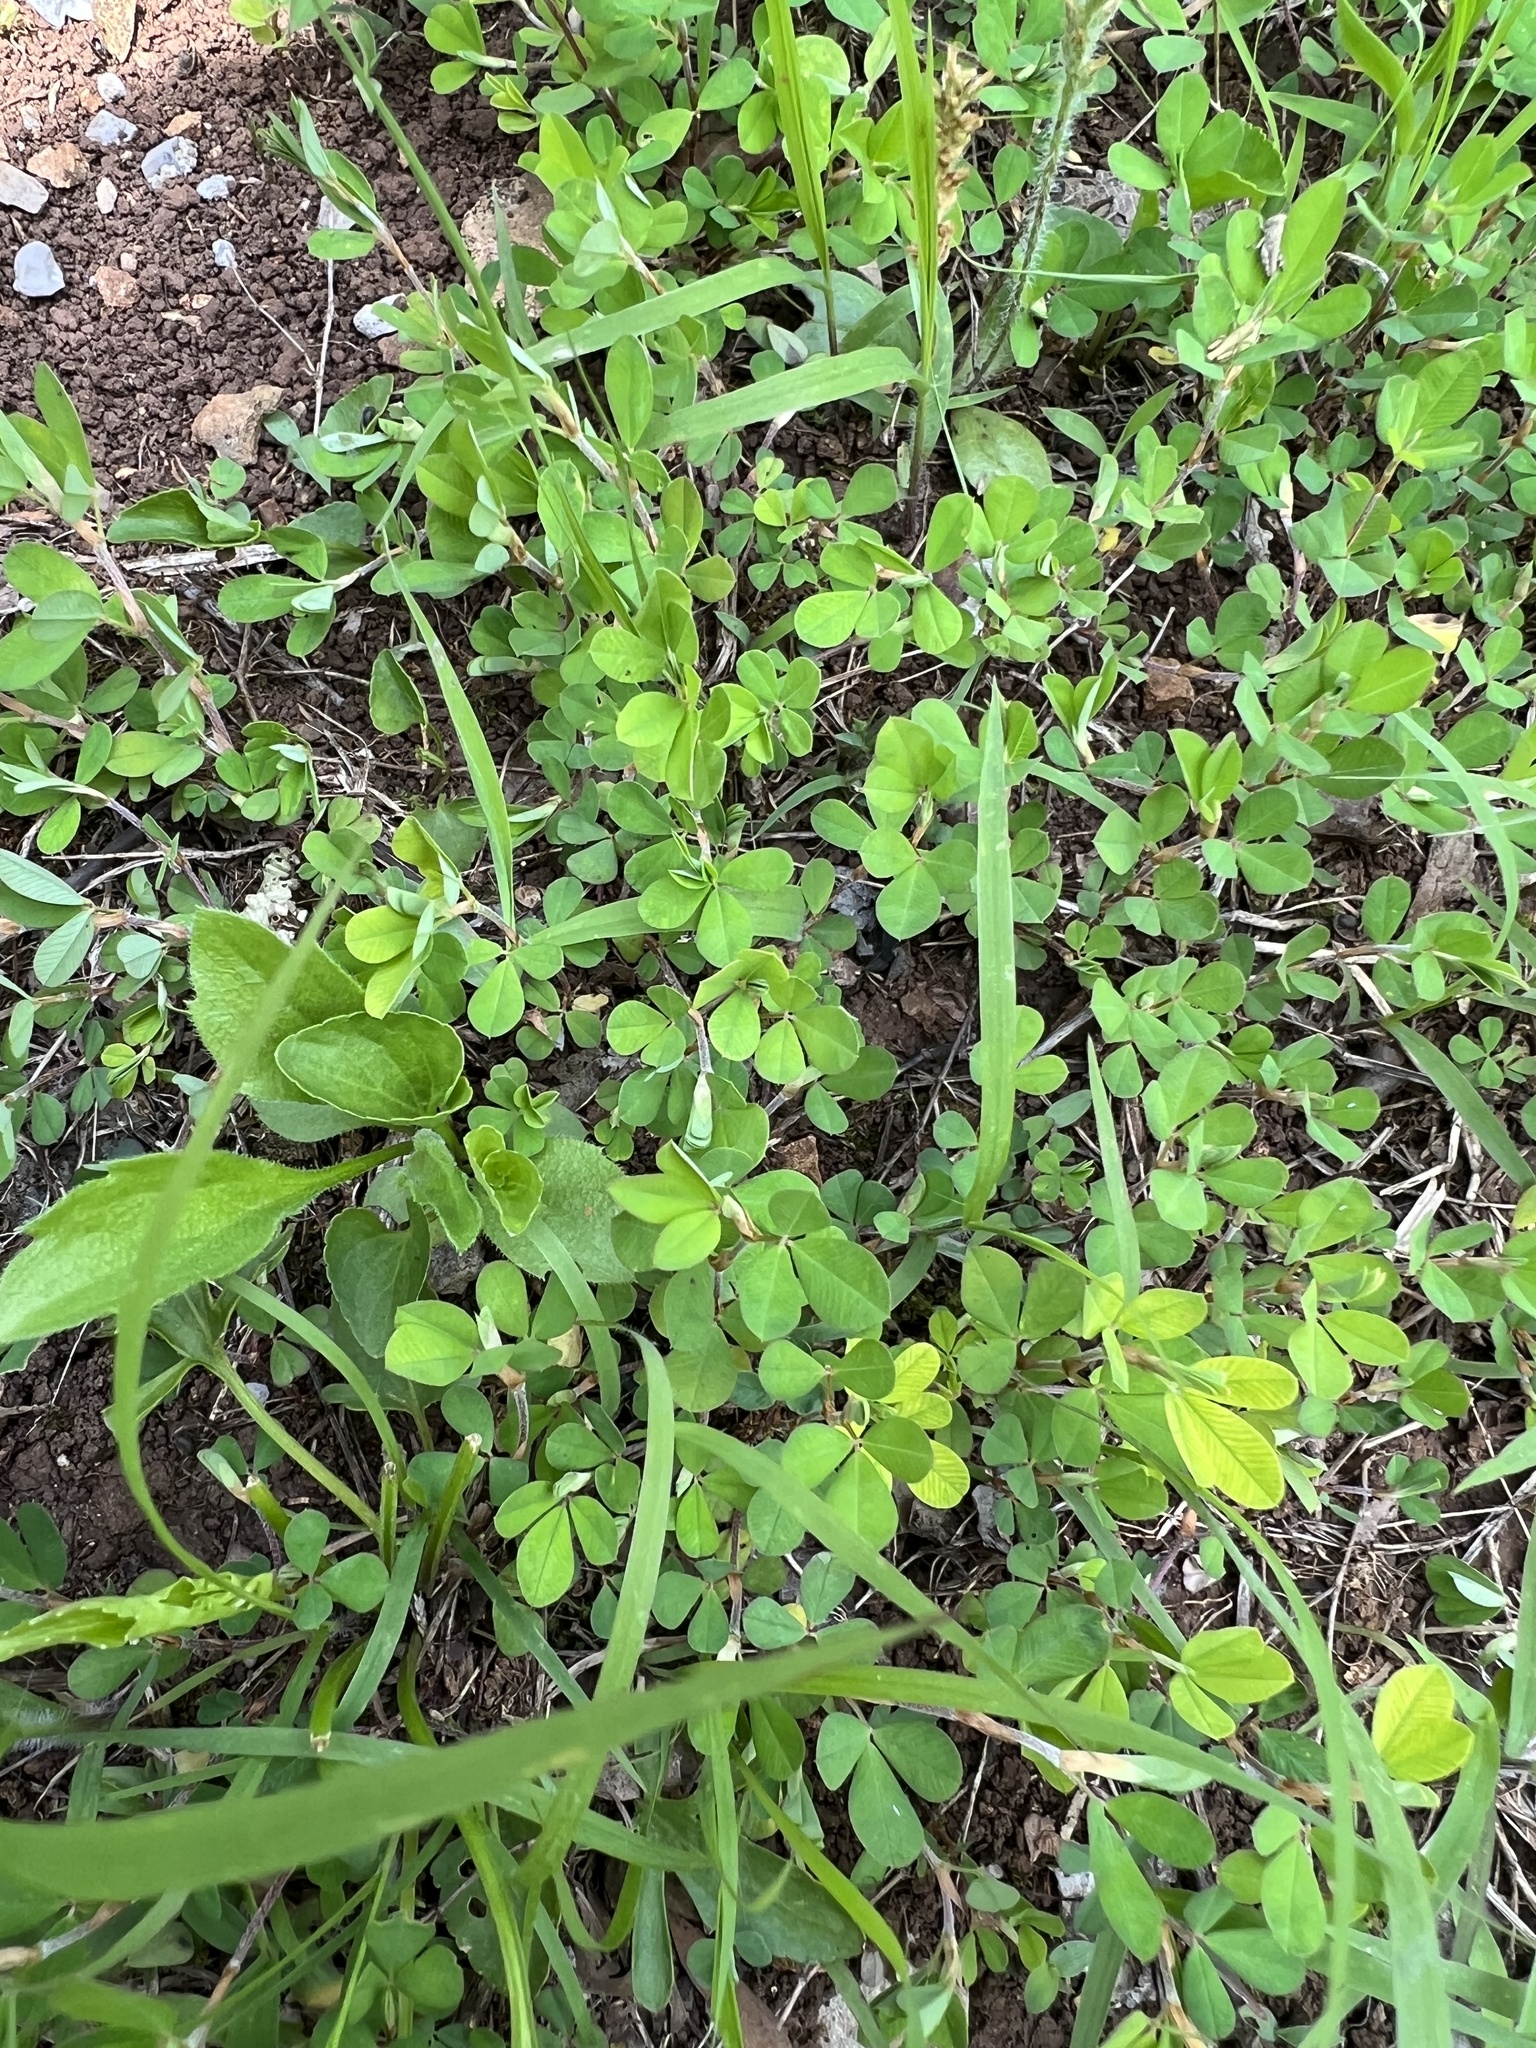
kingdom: Plantae
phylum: Tracheophyta
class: Magnoliopsida
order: Fabales
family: Fabaceae
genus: Kummerowia
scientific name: Kummerowia stipulacea
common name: Korean clover
